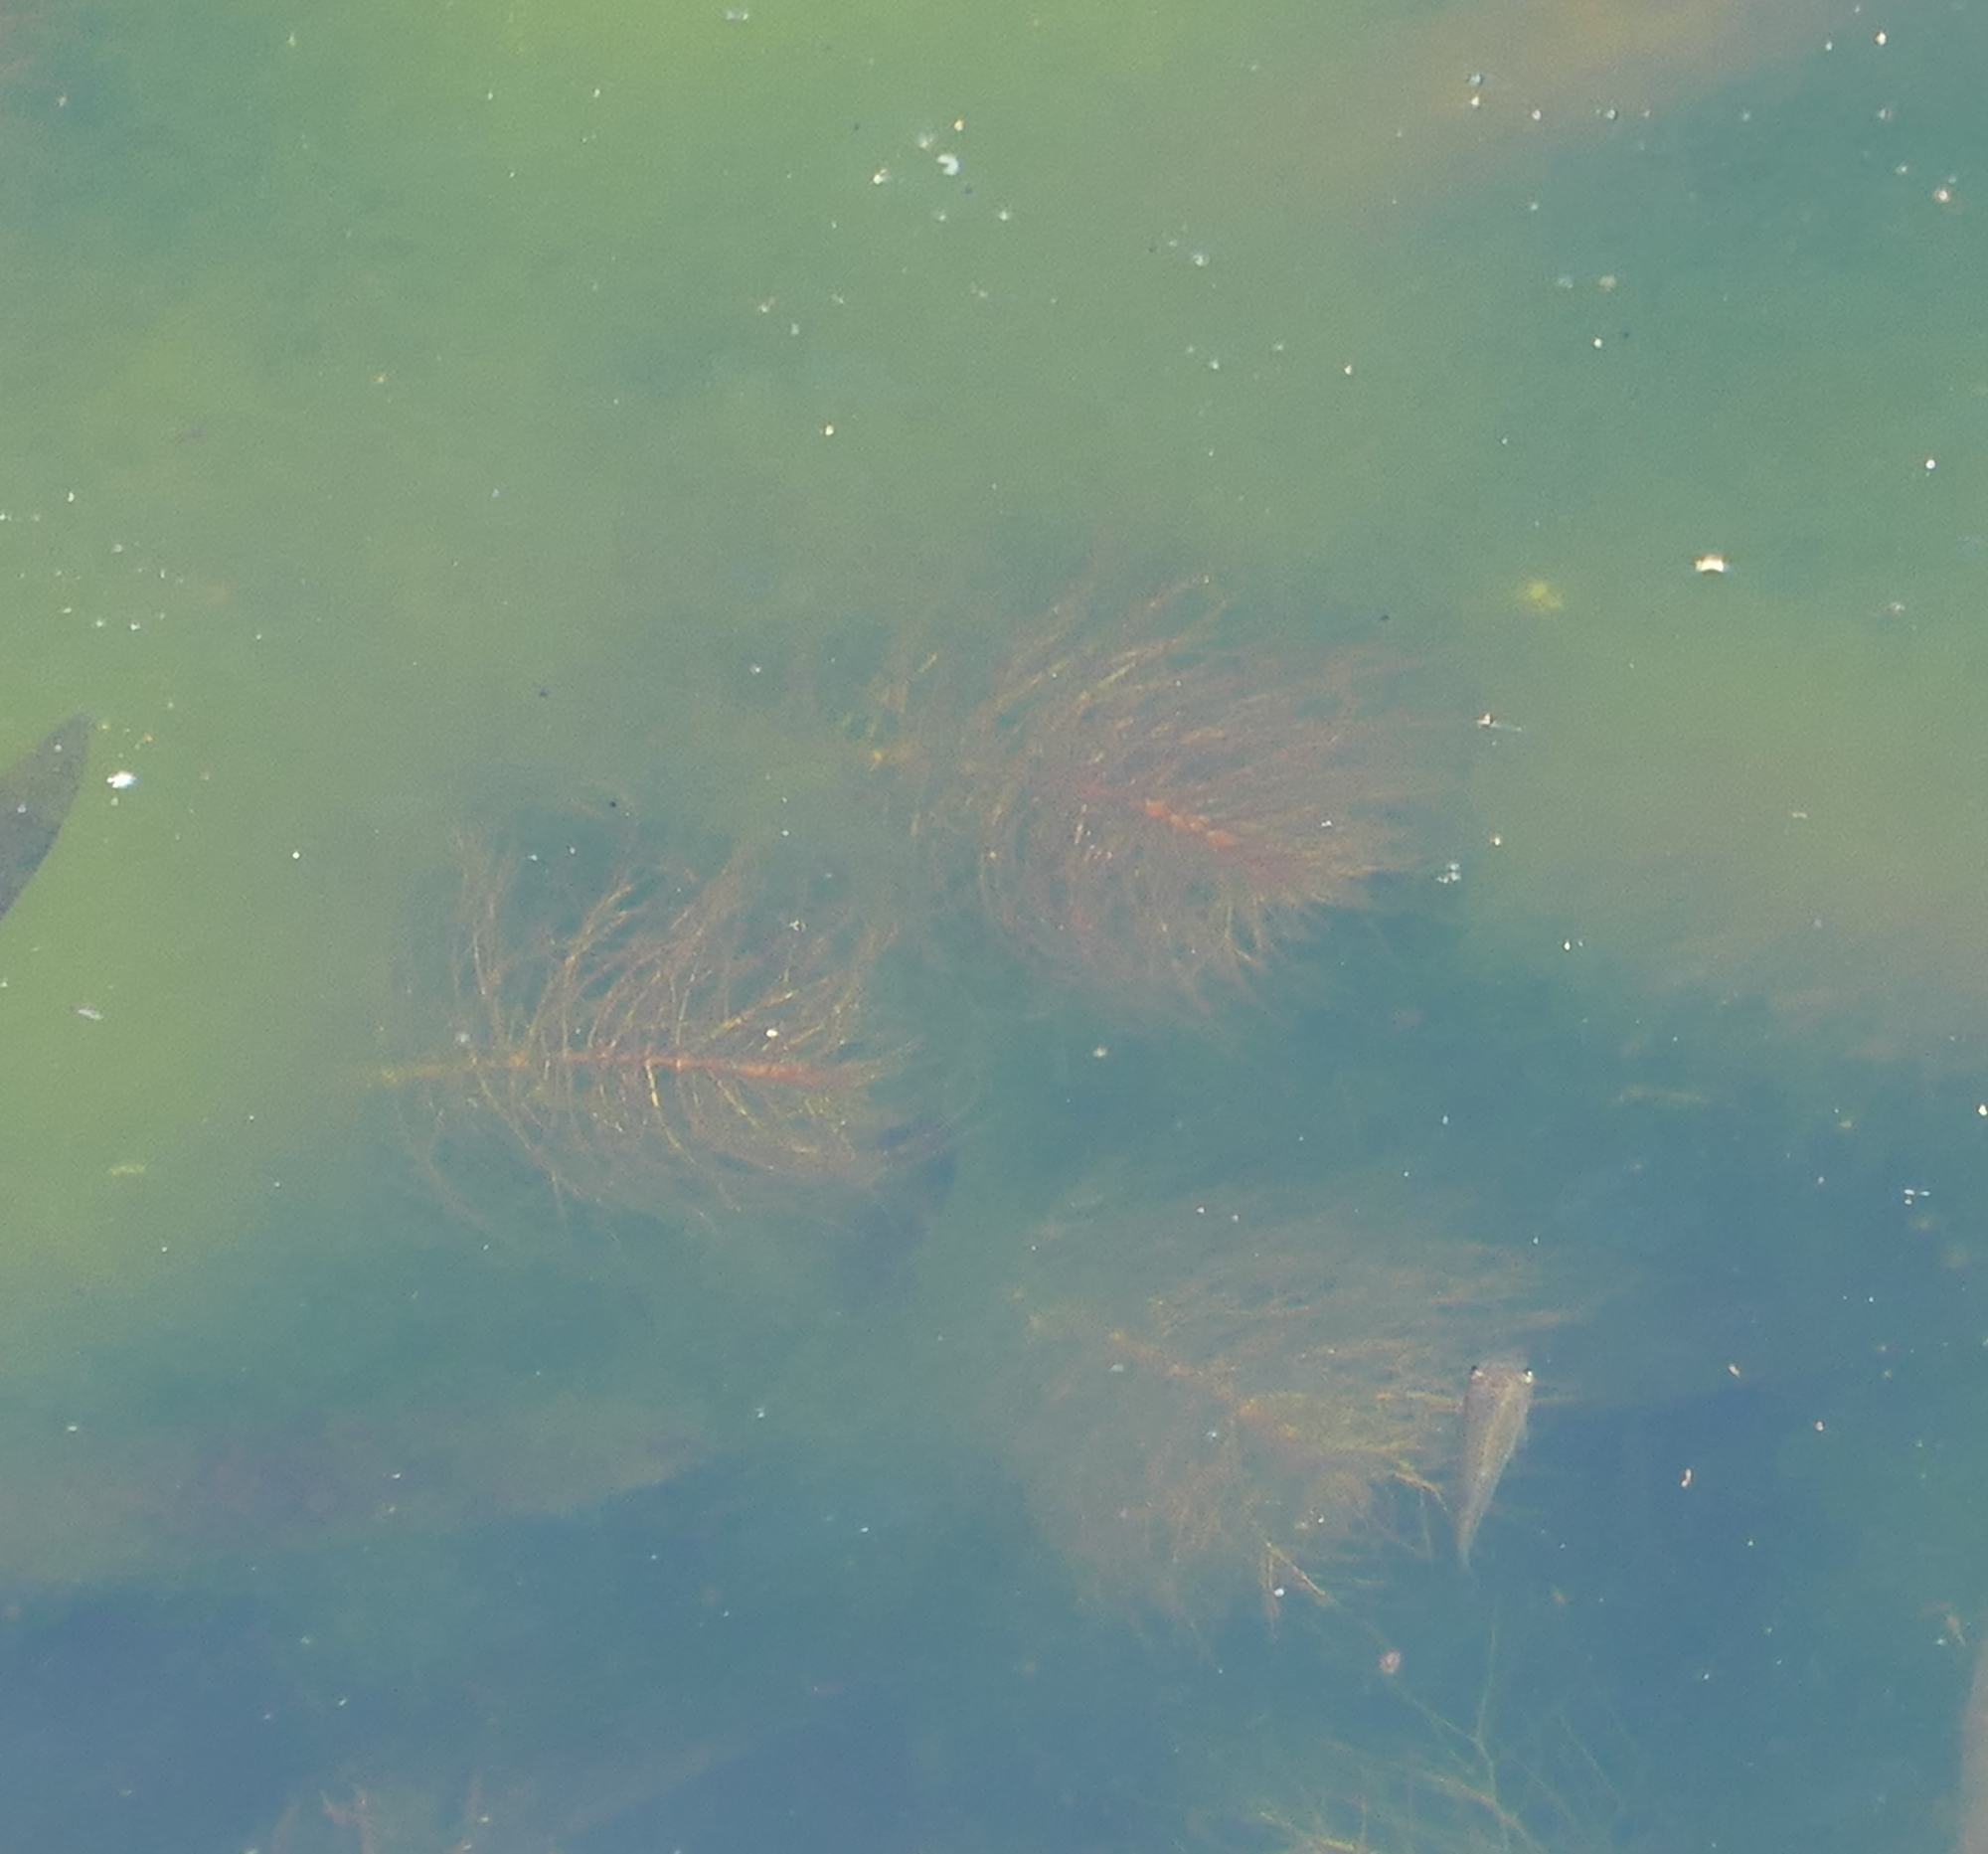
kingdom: Plantae
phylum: Tracheophyta
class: Magnoliopsida
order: Saxifragales
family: Haloragaceae
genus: Myriophyllum
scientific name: Myriophyllum heterophyllum
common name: Variable watermilfoil
